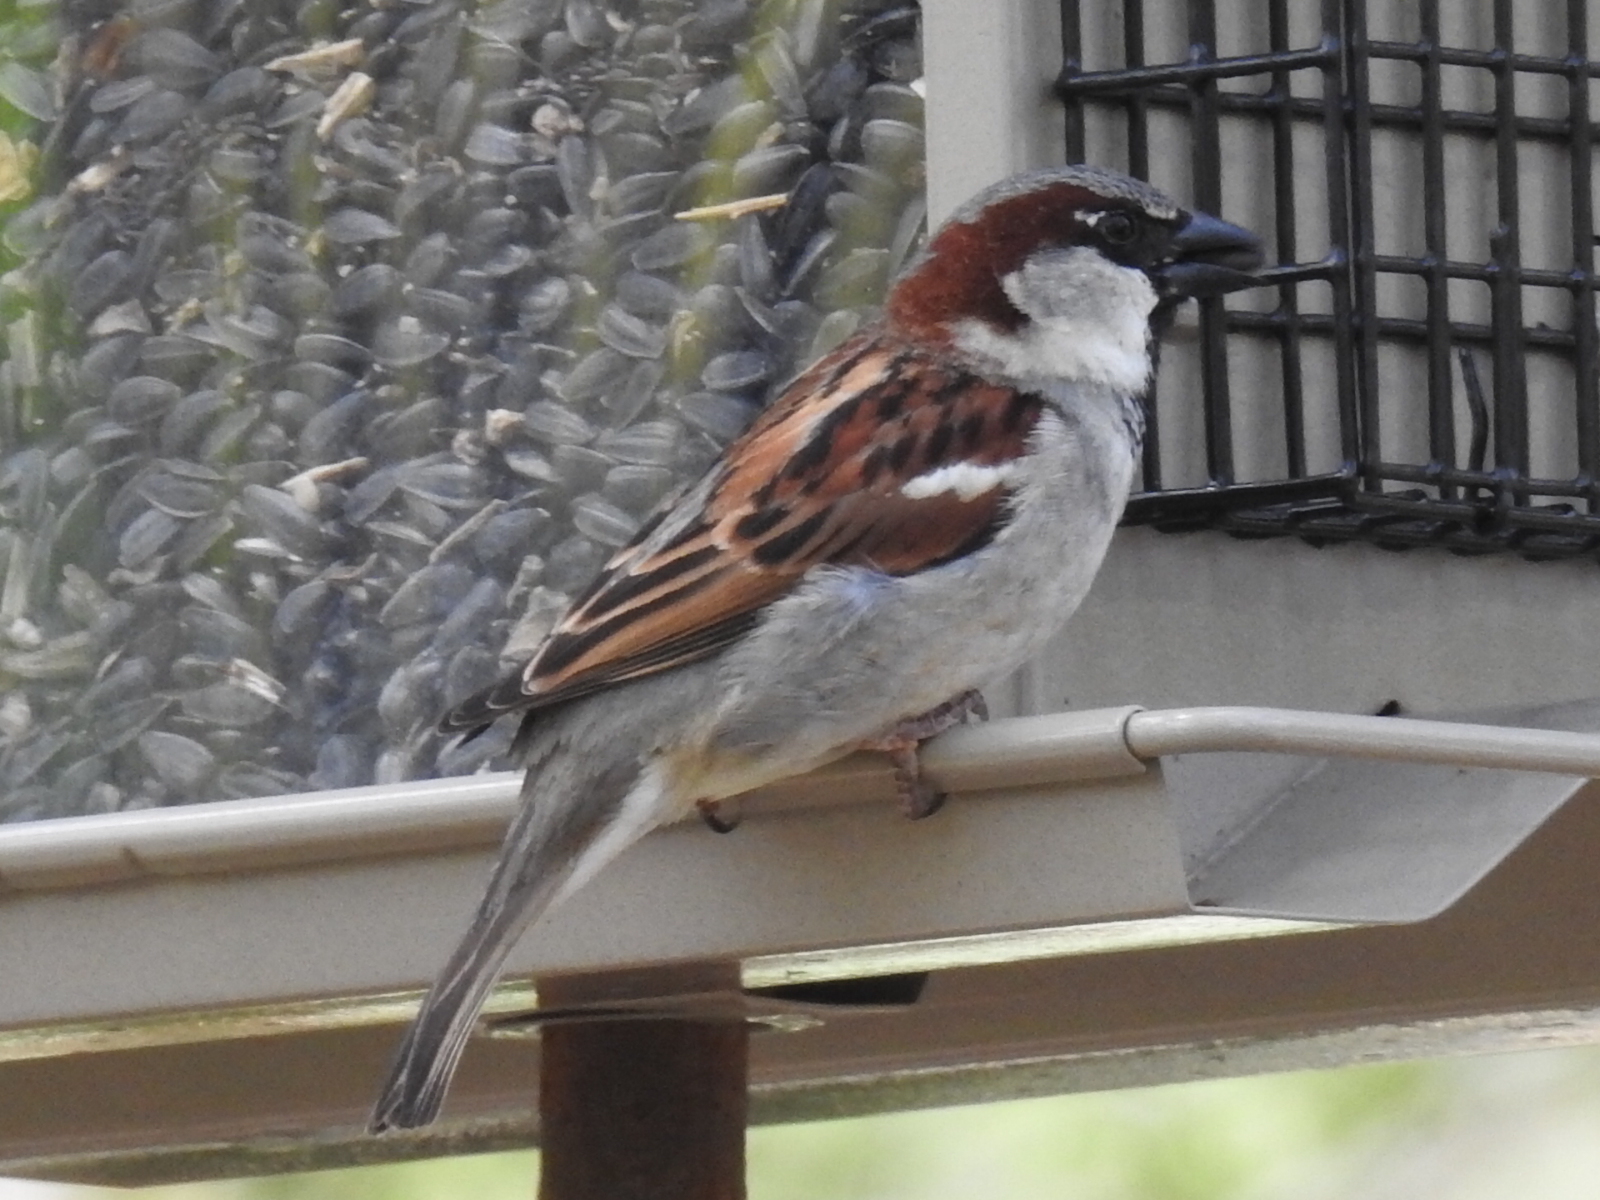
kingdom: Animalia
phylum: Chordata
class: Aves
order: Passeriformes
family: Passeridae
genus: Passer
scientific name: Passer domesticus
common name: House sparrow
